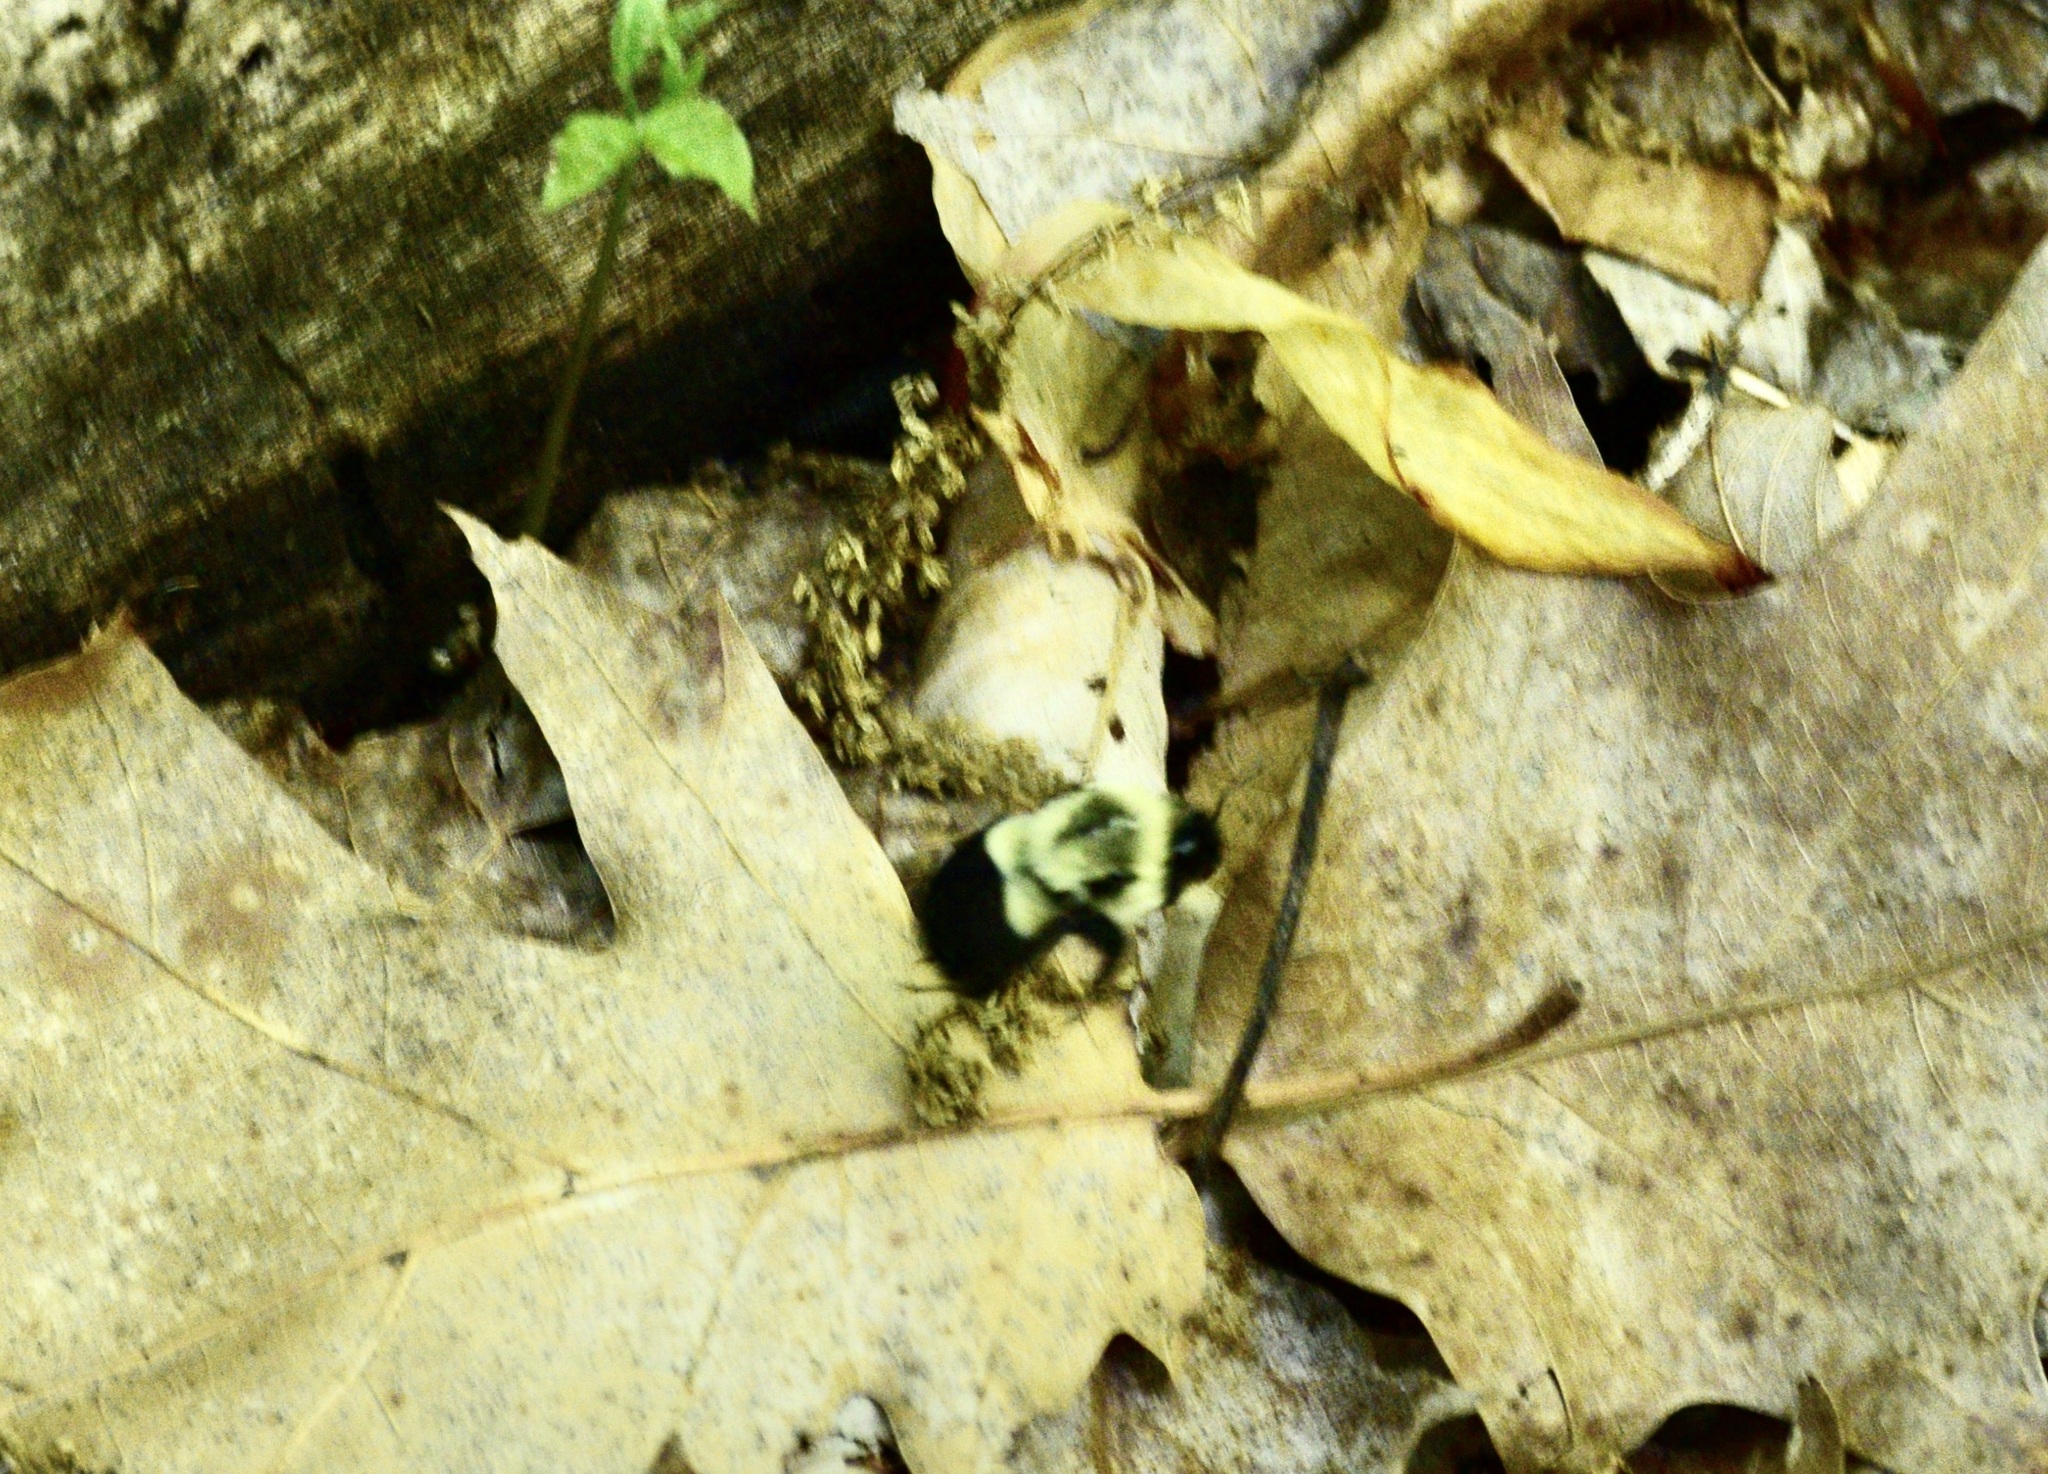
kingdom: Animalia
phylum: Arthropoda
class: Insecta
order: Hymenoptera
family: Apidae
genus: Bombus
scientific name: Bombus impatiens
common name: Common eastern bumble bee
